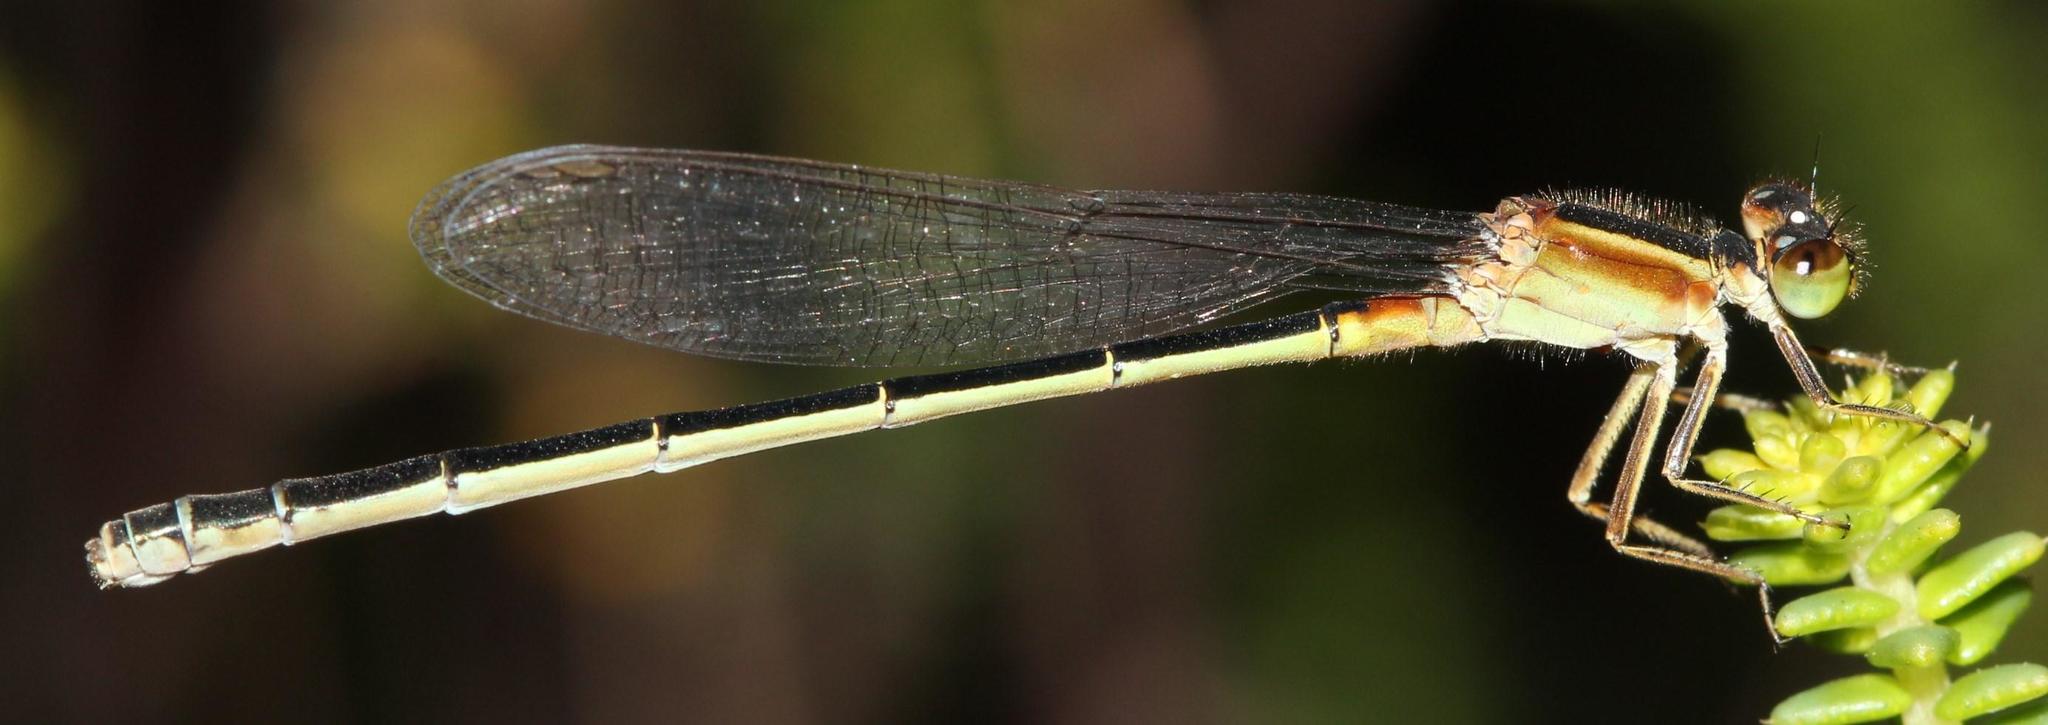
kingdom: Animalia
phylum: Arthropoda
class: Insecta
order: Odonata
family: Coenagrionidae
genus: Ischnura
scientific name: Ischnura senegalensis
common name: Tropical bluetail
